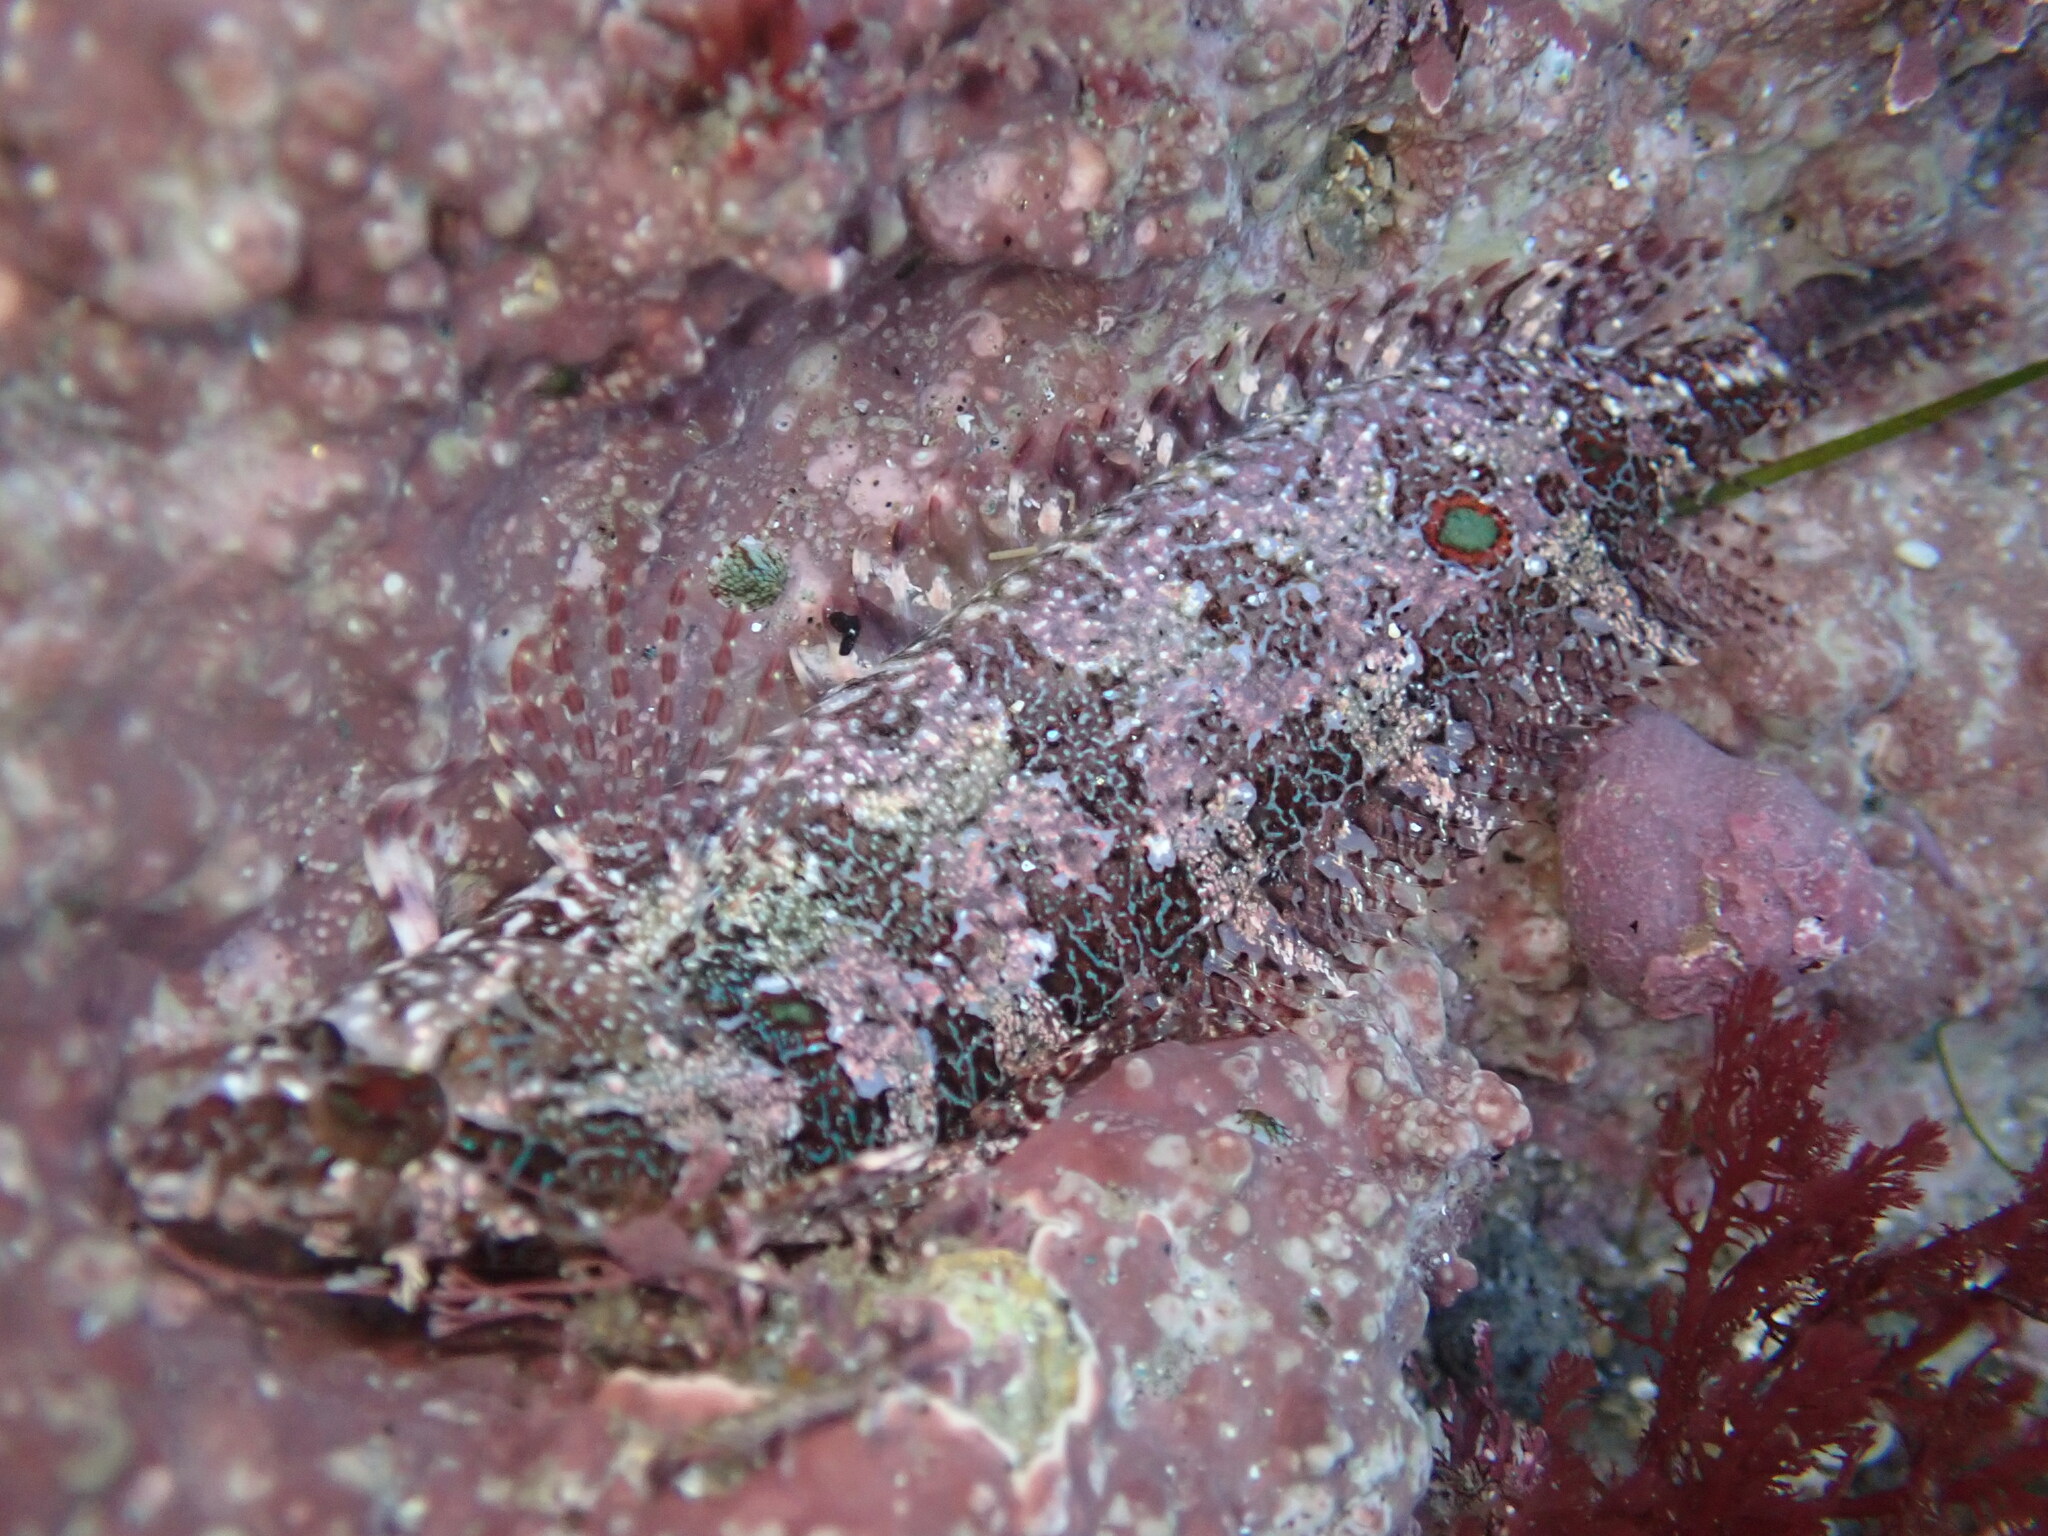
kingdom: Animalia
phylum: Chordata
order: Perciformes
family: Clinidae
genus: Gibbonsia
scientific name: Gibbonsia elegans
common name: Spotted kelpfish
